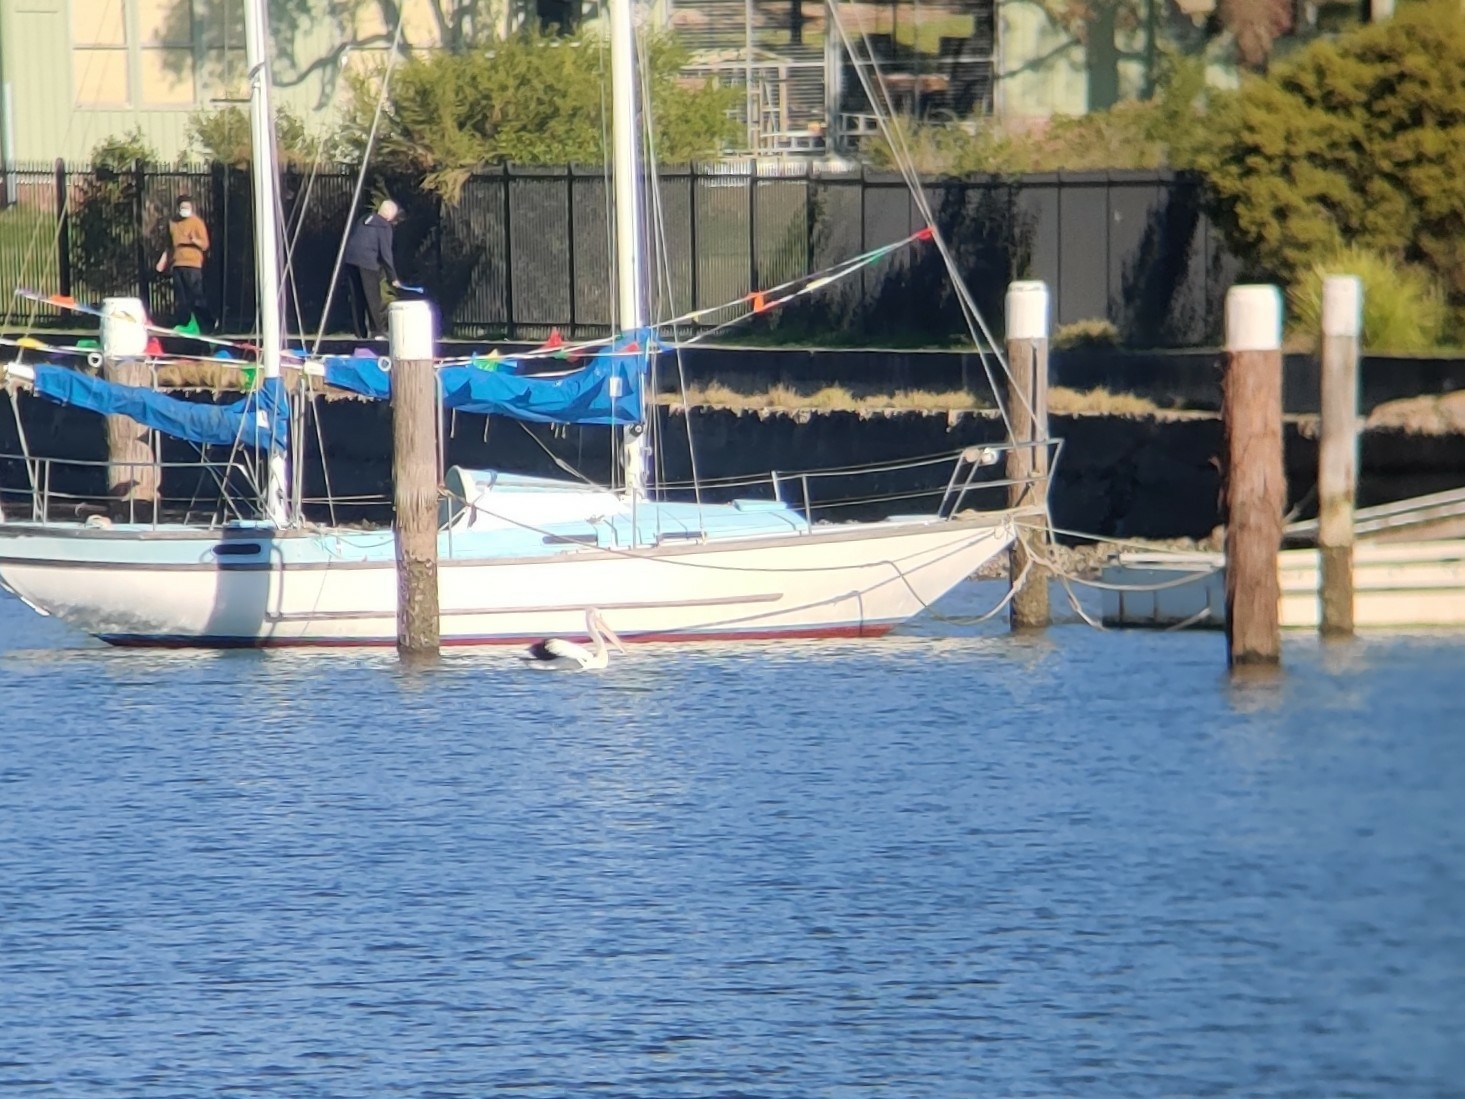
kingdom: Animalia
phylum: Chordata
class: Aves
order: Pelecaniformes
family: Pelecanidae
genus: Pelecanus
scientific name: Pelecanus conspicillatus
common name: Australian pelican
